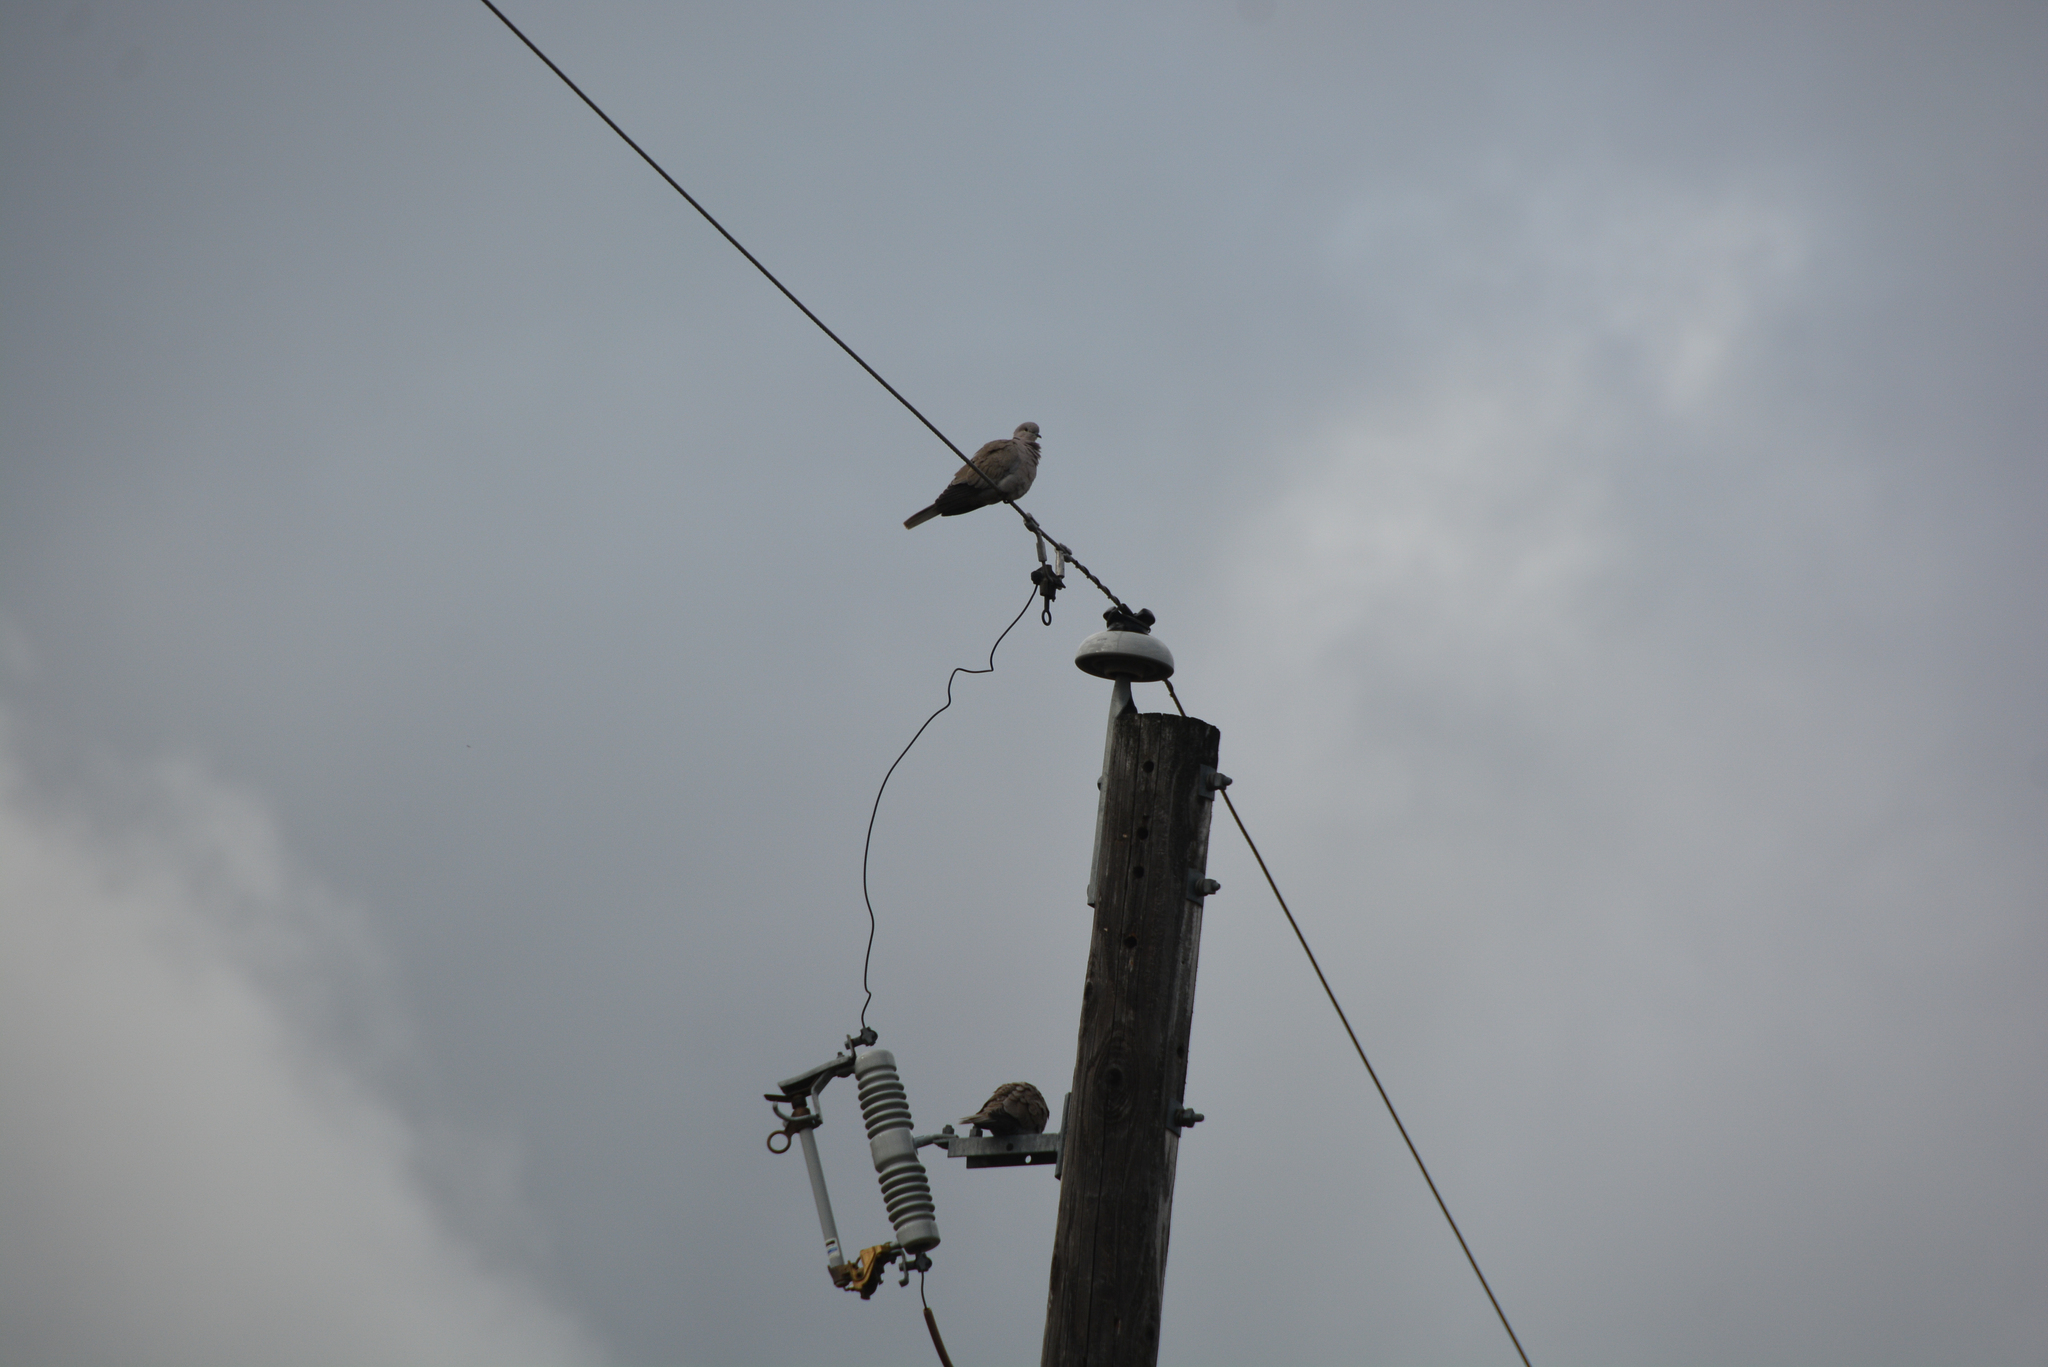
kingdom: Animalia
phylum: Chordata
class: Aves
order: Columbiformes
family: Columbidae
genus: Streptopelia
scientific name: Streptopelia decaocto
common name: Eurasian collared dove
